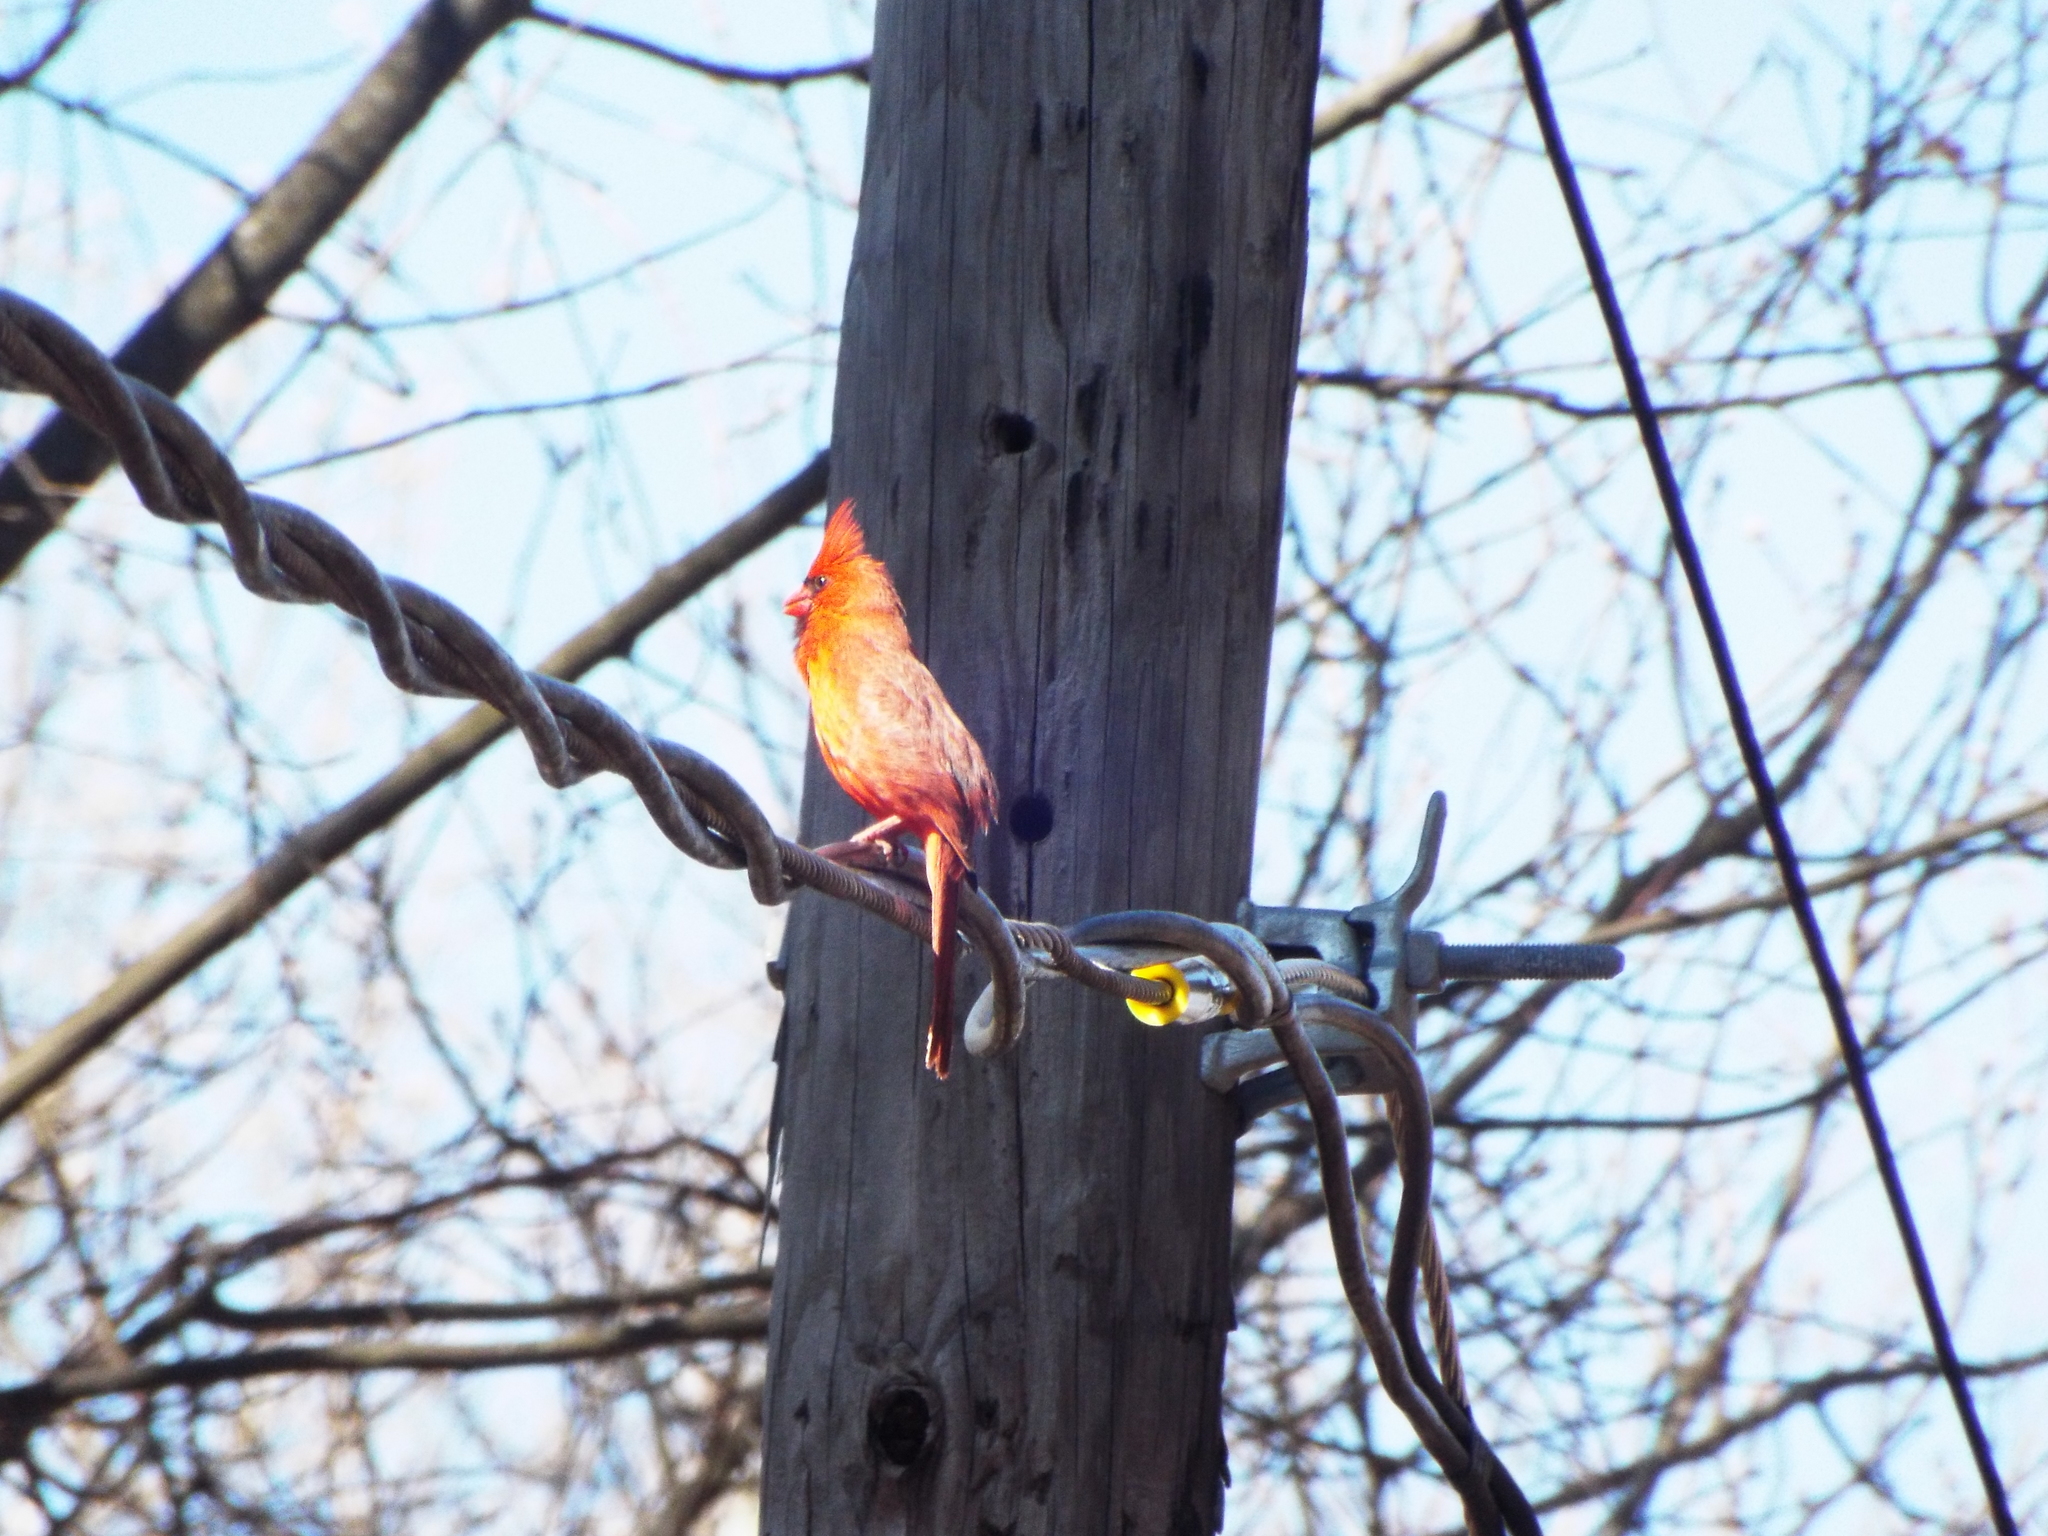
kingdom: Animalia
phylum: Chordata
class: Aves
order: Passeriformes
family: Cardinalidae
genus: Cardinalis
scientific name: Cardinalis cardinalis
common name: Northern cardinal
